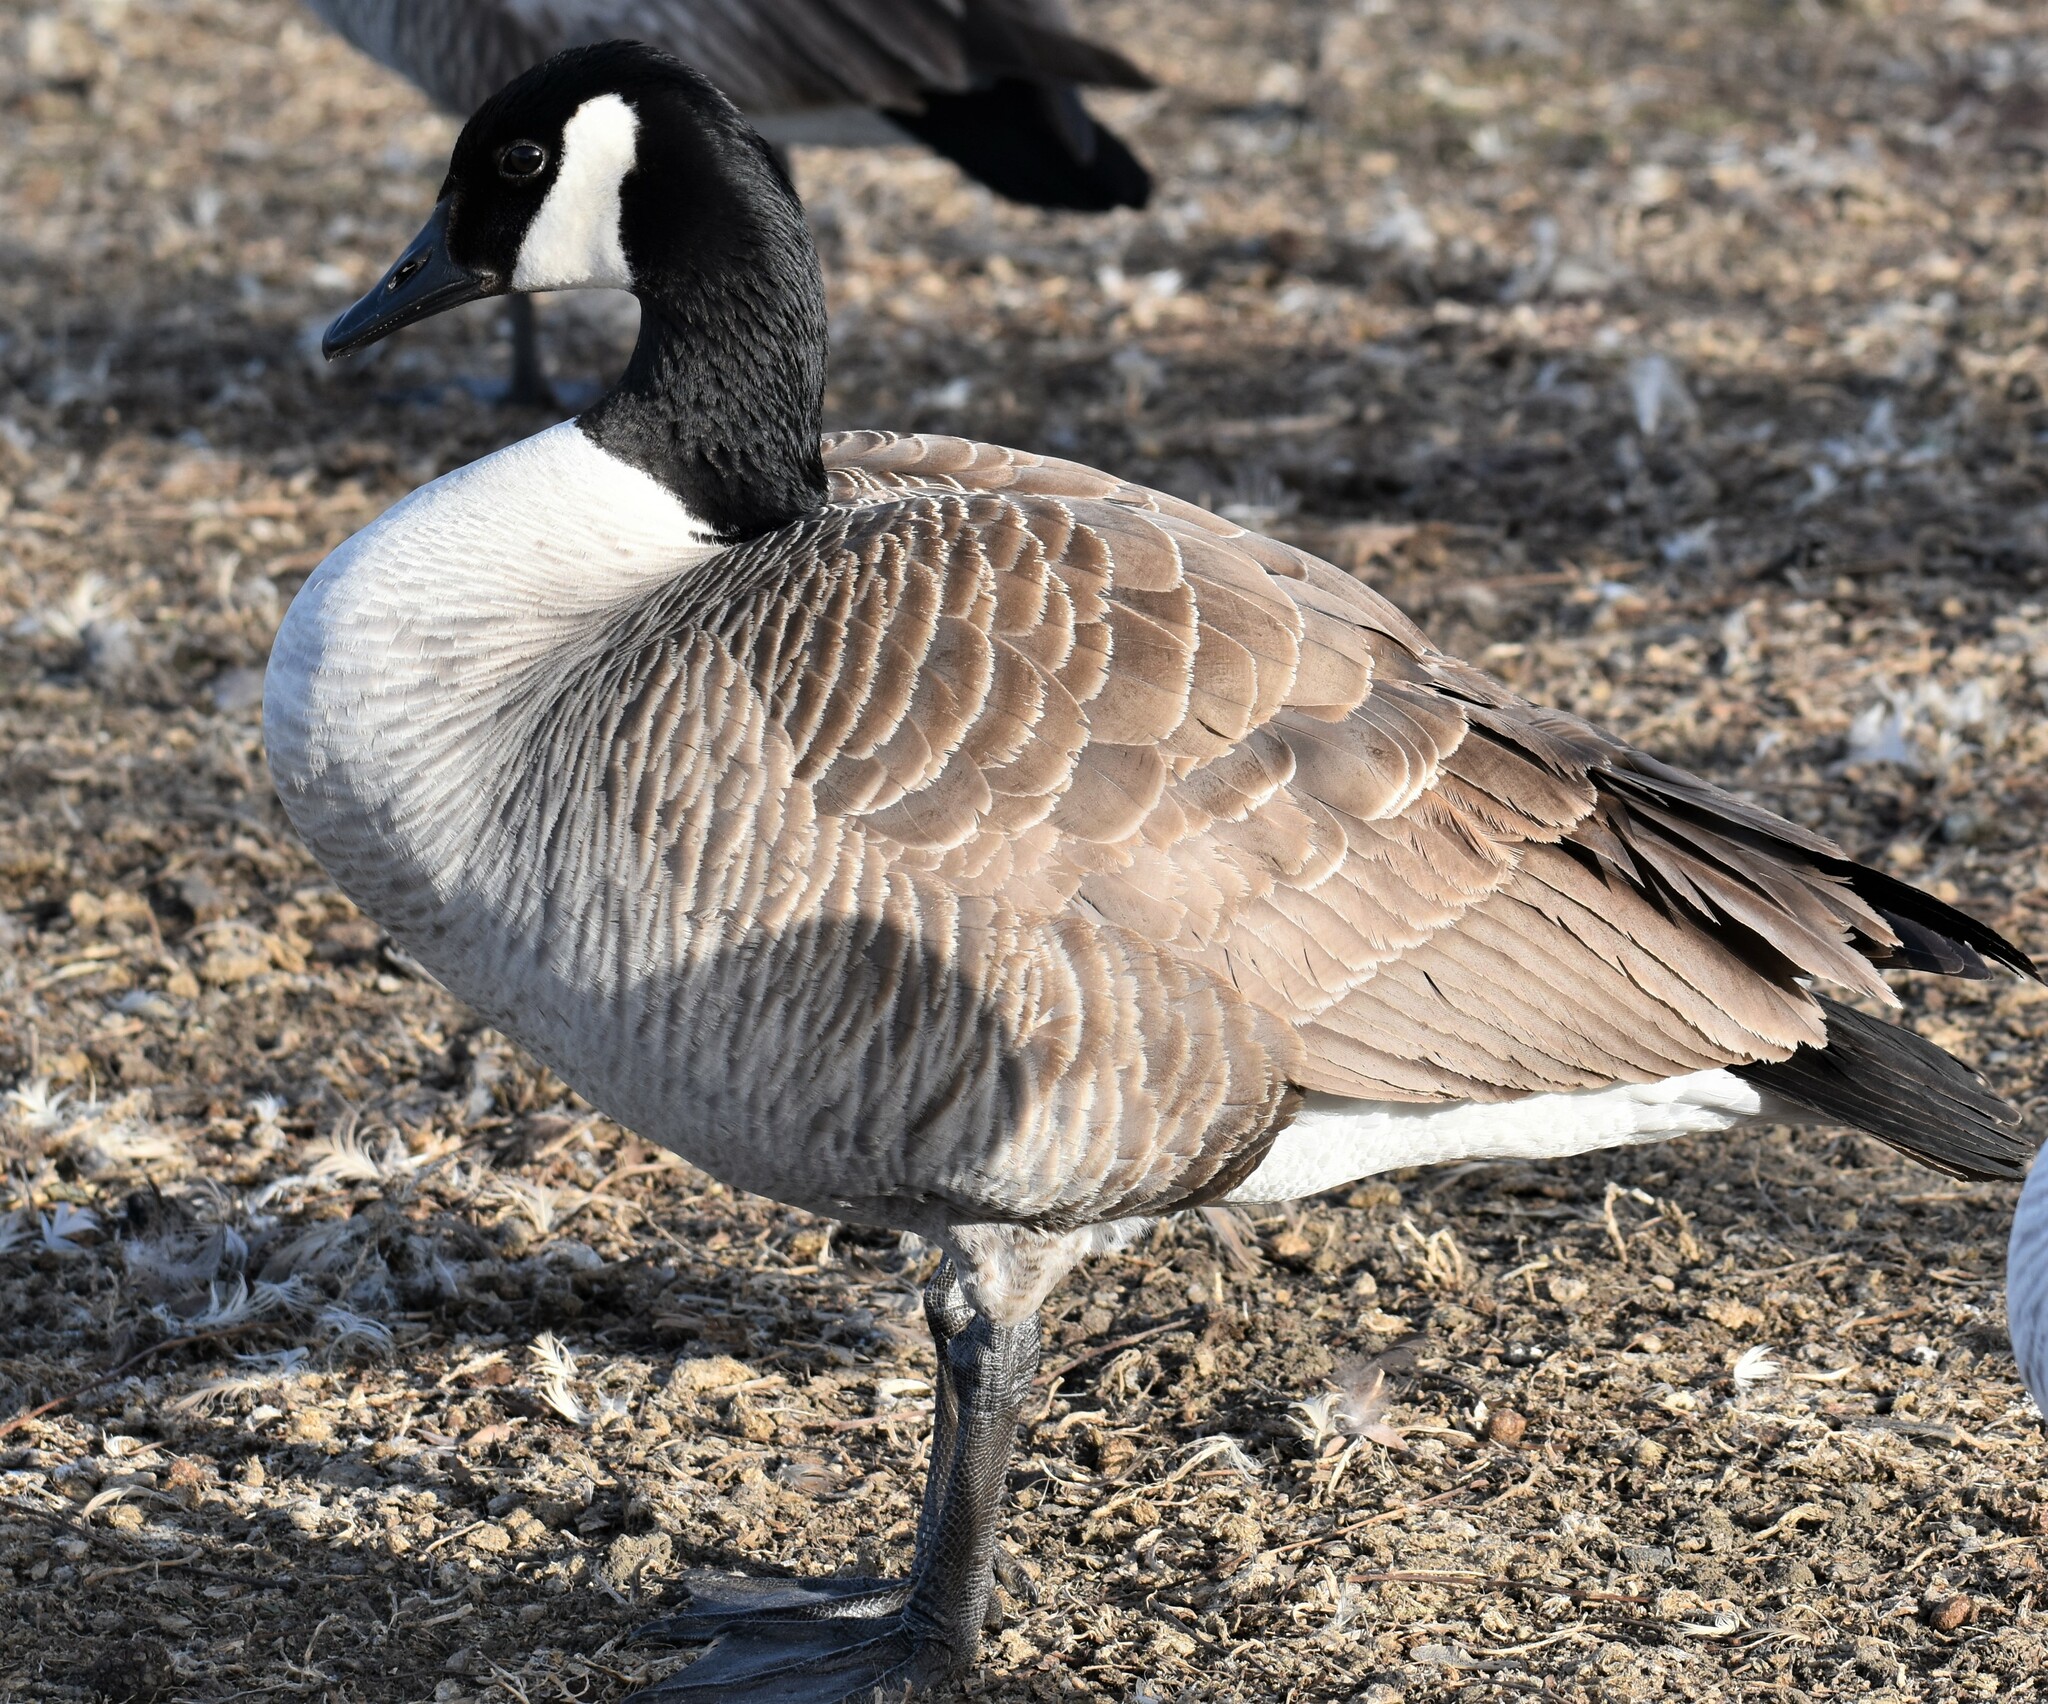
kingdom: Animalia
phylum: Chordata
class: Aves
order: Anseriformes
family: Anatidae
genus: Branta
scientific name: Branta canadensis
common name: Canada goose
